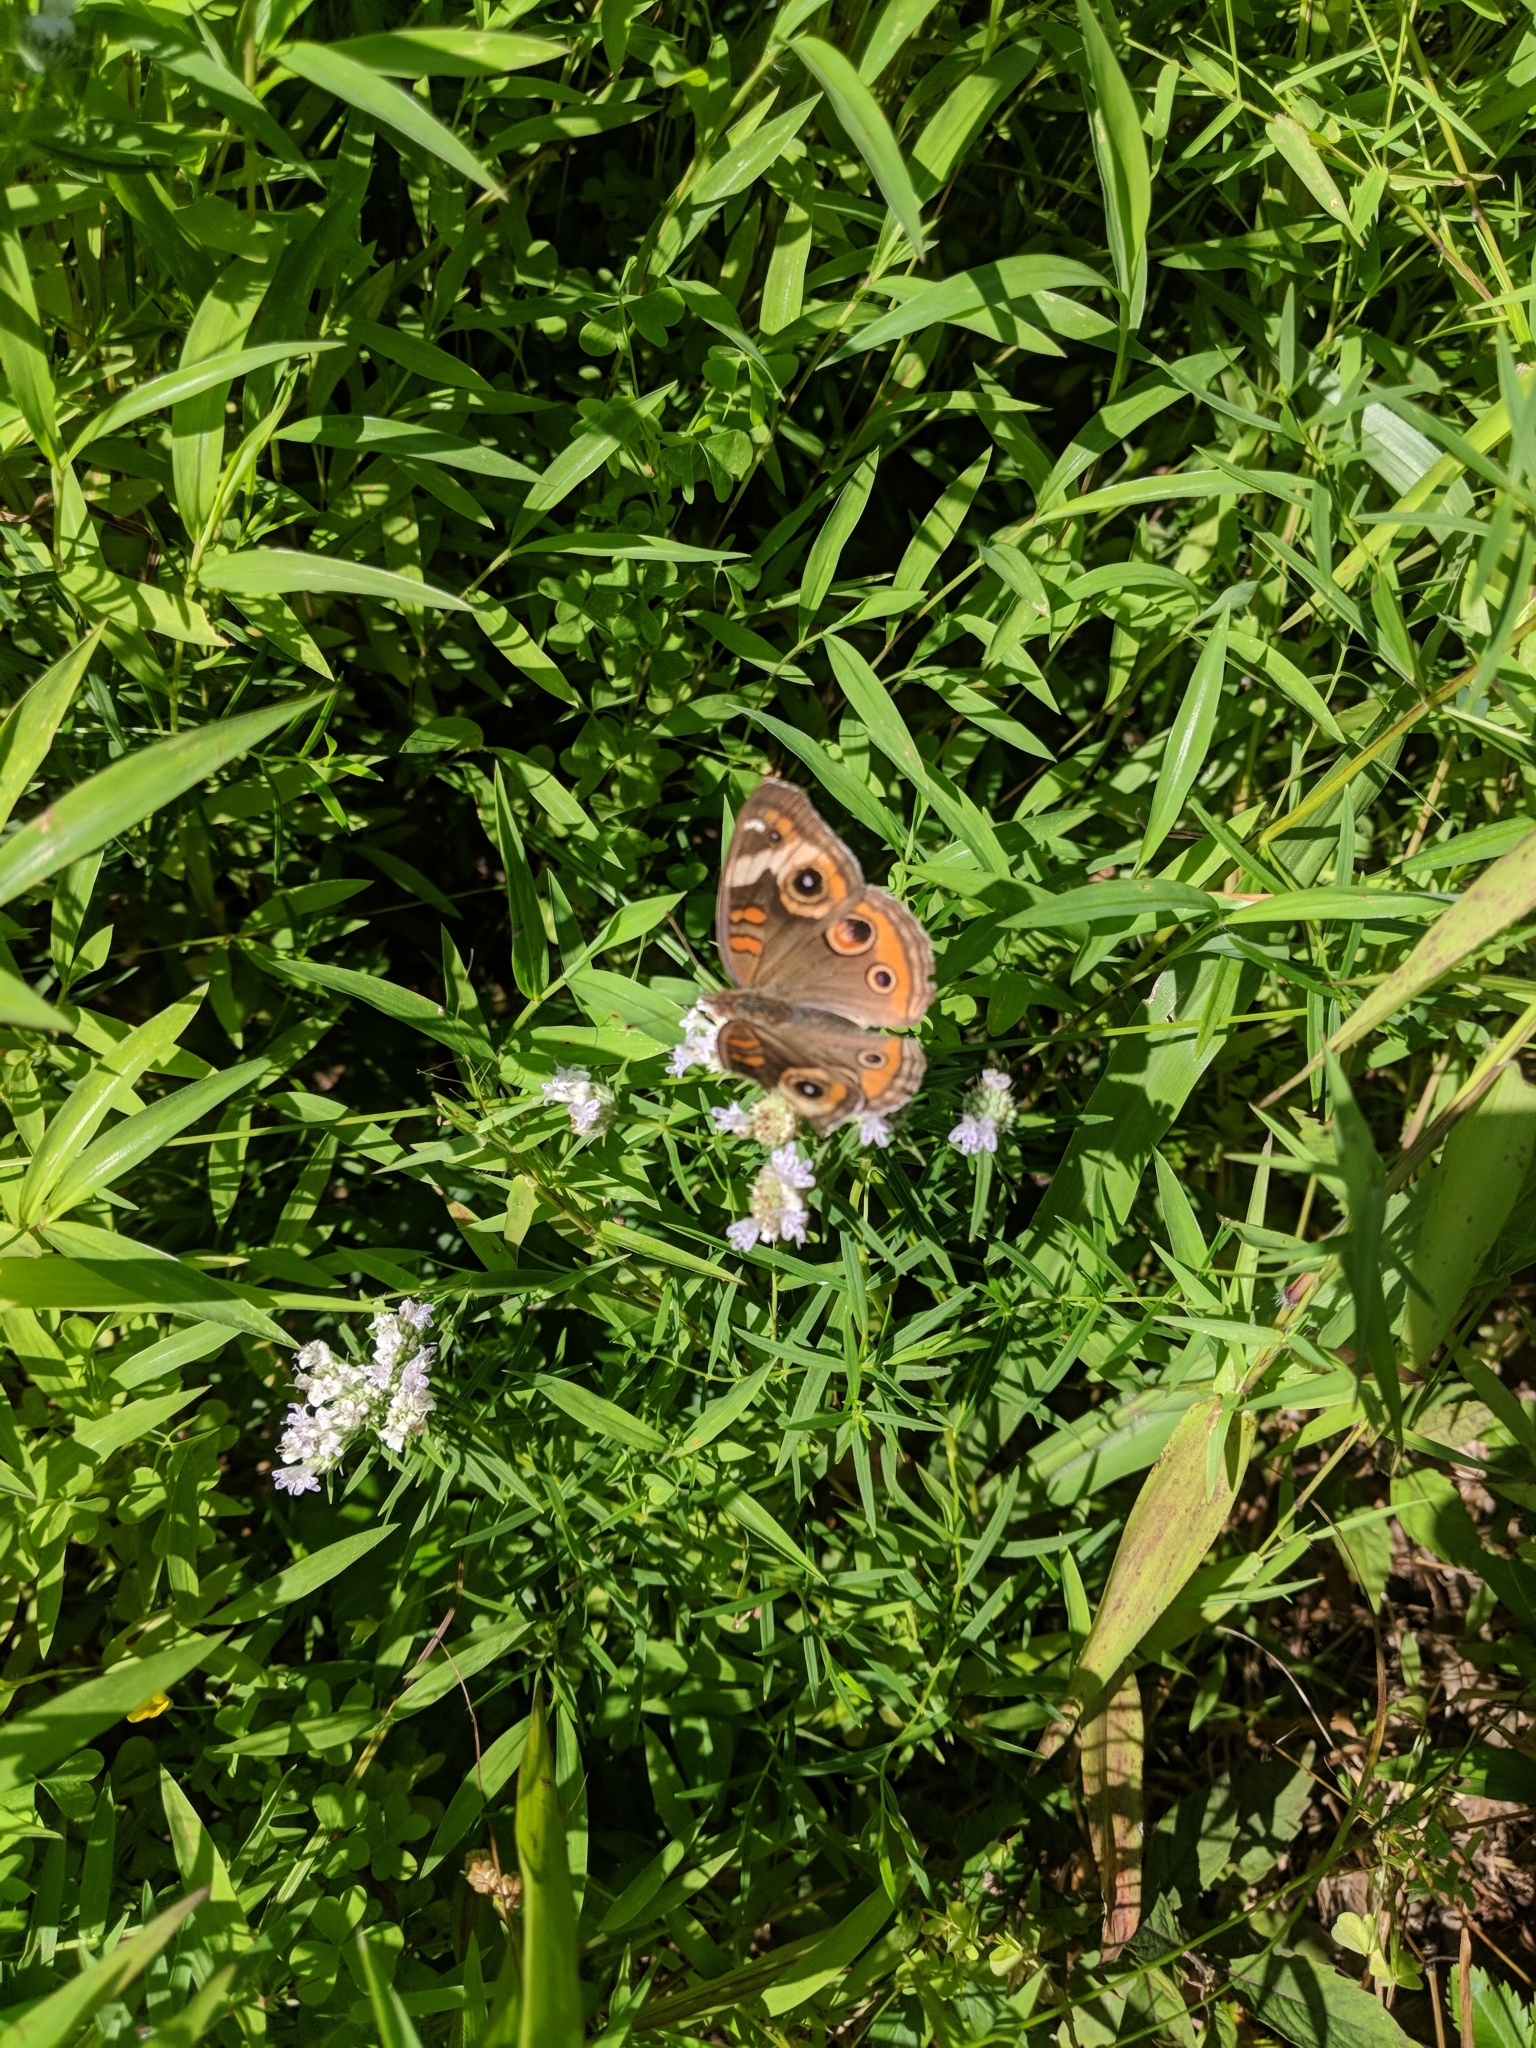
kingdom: Animalia
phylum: Arthropoda
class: Insecta
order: Lepidoptera
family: Nymphalidae
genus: Junonia
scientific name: Junonia coenia
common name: Common buckeye
